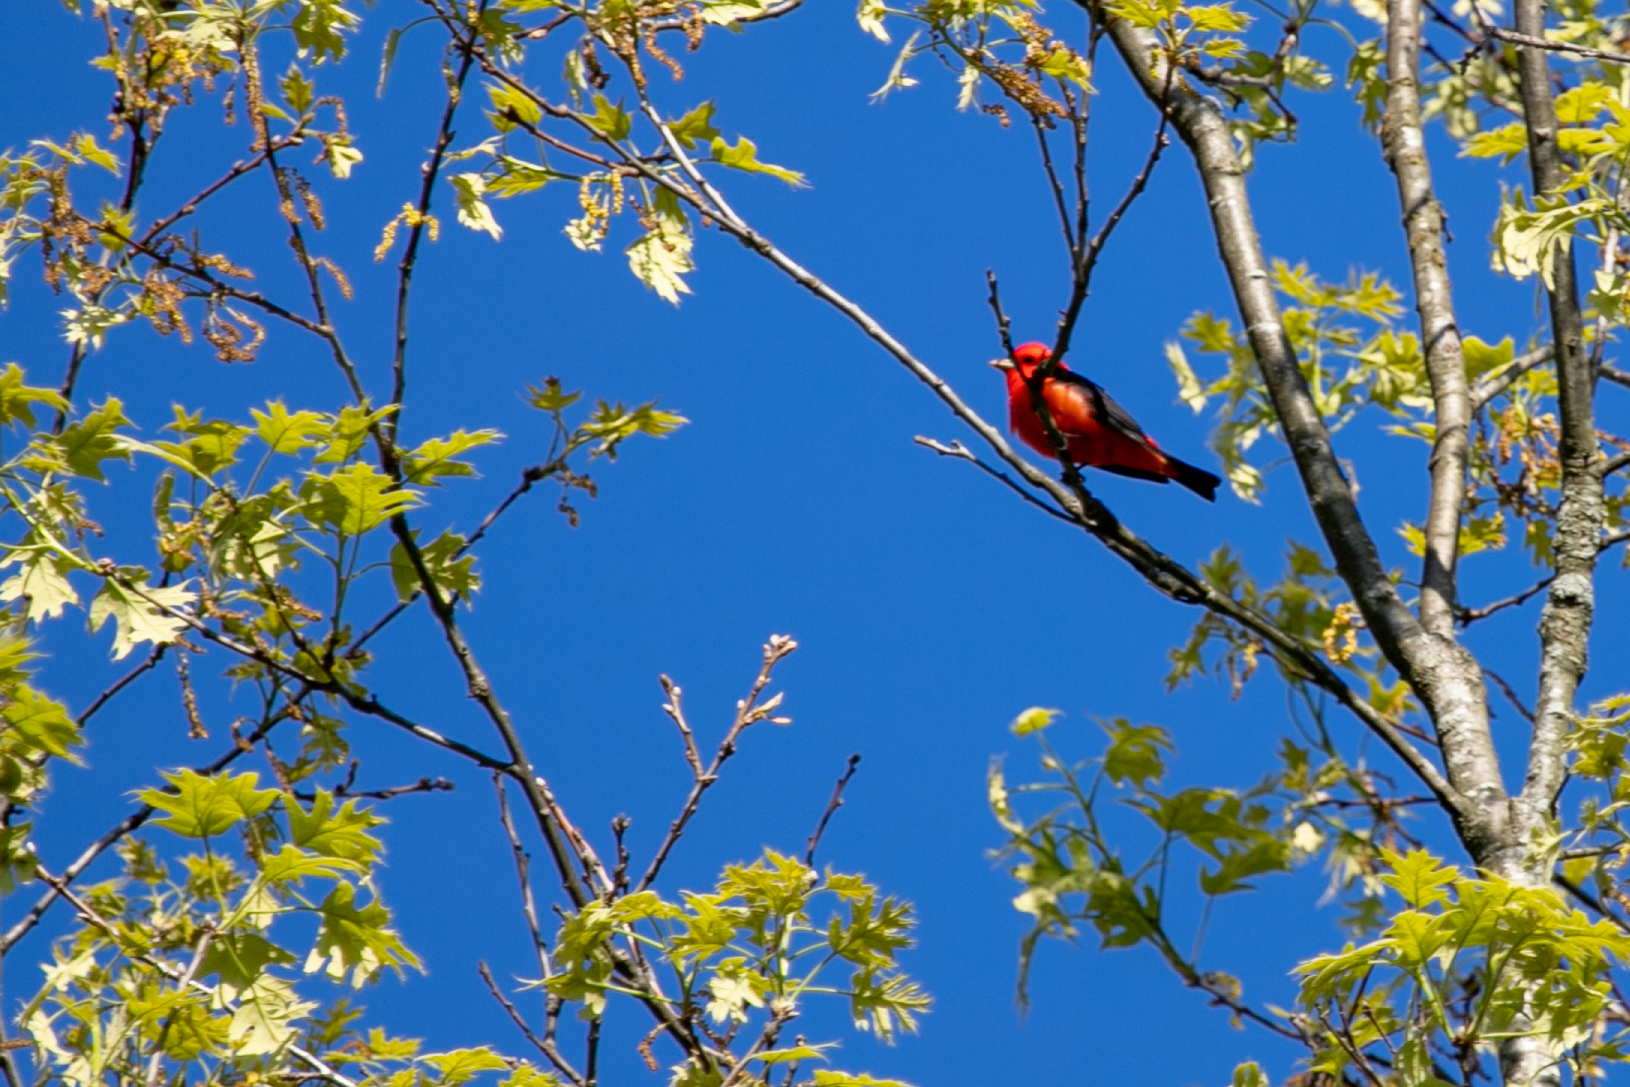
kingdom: Animalia
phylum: Chordata
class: Aves
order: Passeriformes
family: Cardinalidae
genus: Piranga
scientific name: Piranga olivacea
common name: Scarlet tanager
